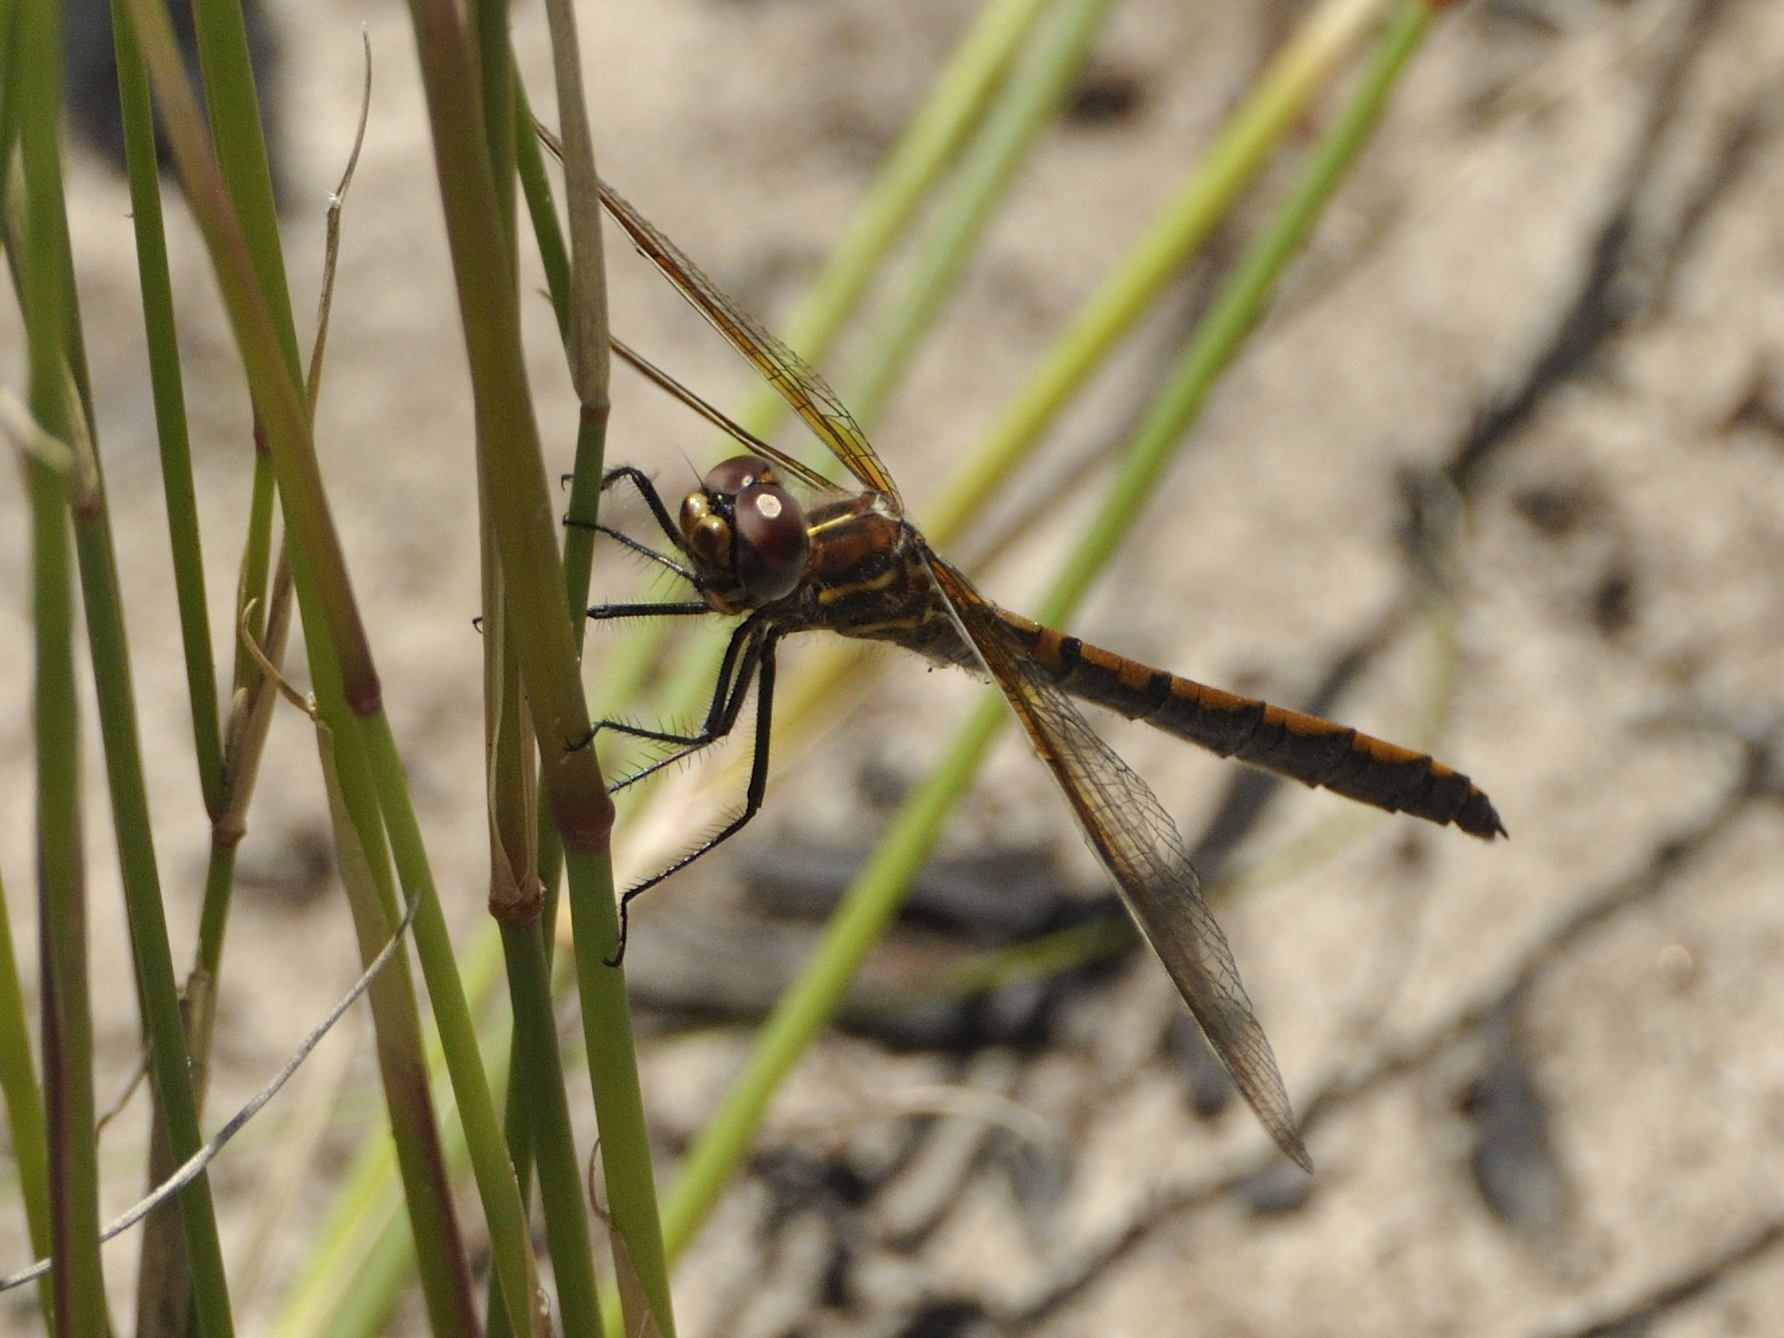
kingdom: Animalia
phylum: Arthropoda
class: Insecta
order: Odonata
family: Synthemistidae
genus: Syncordulia
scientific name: Syncordulia gracilis
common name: Yellow presba
